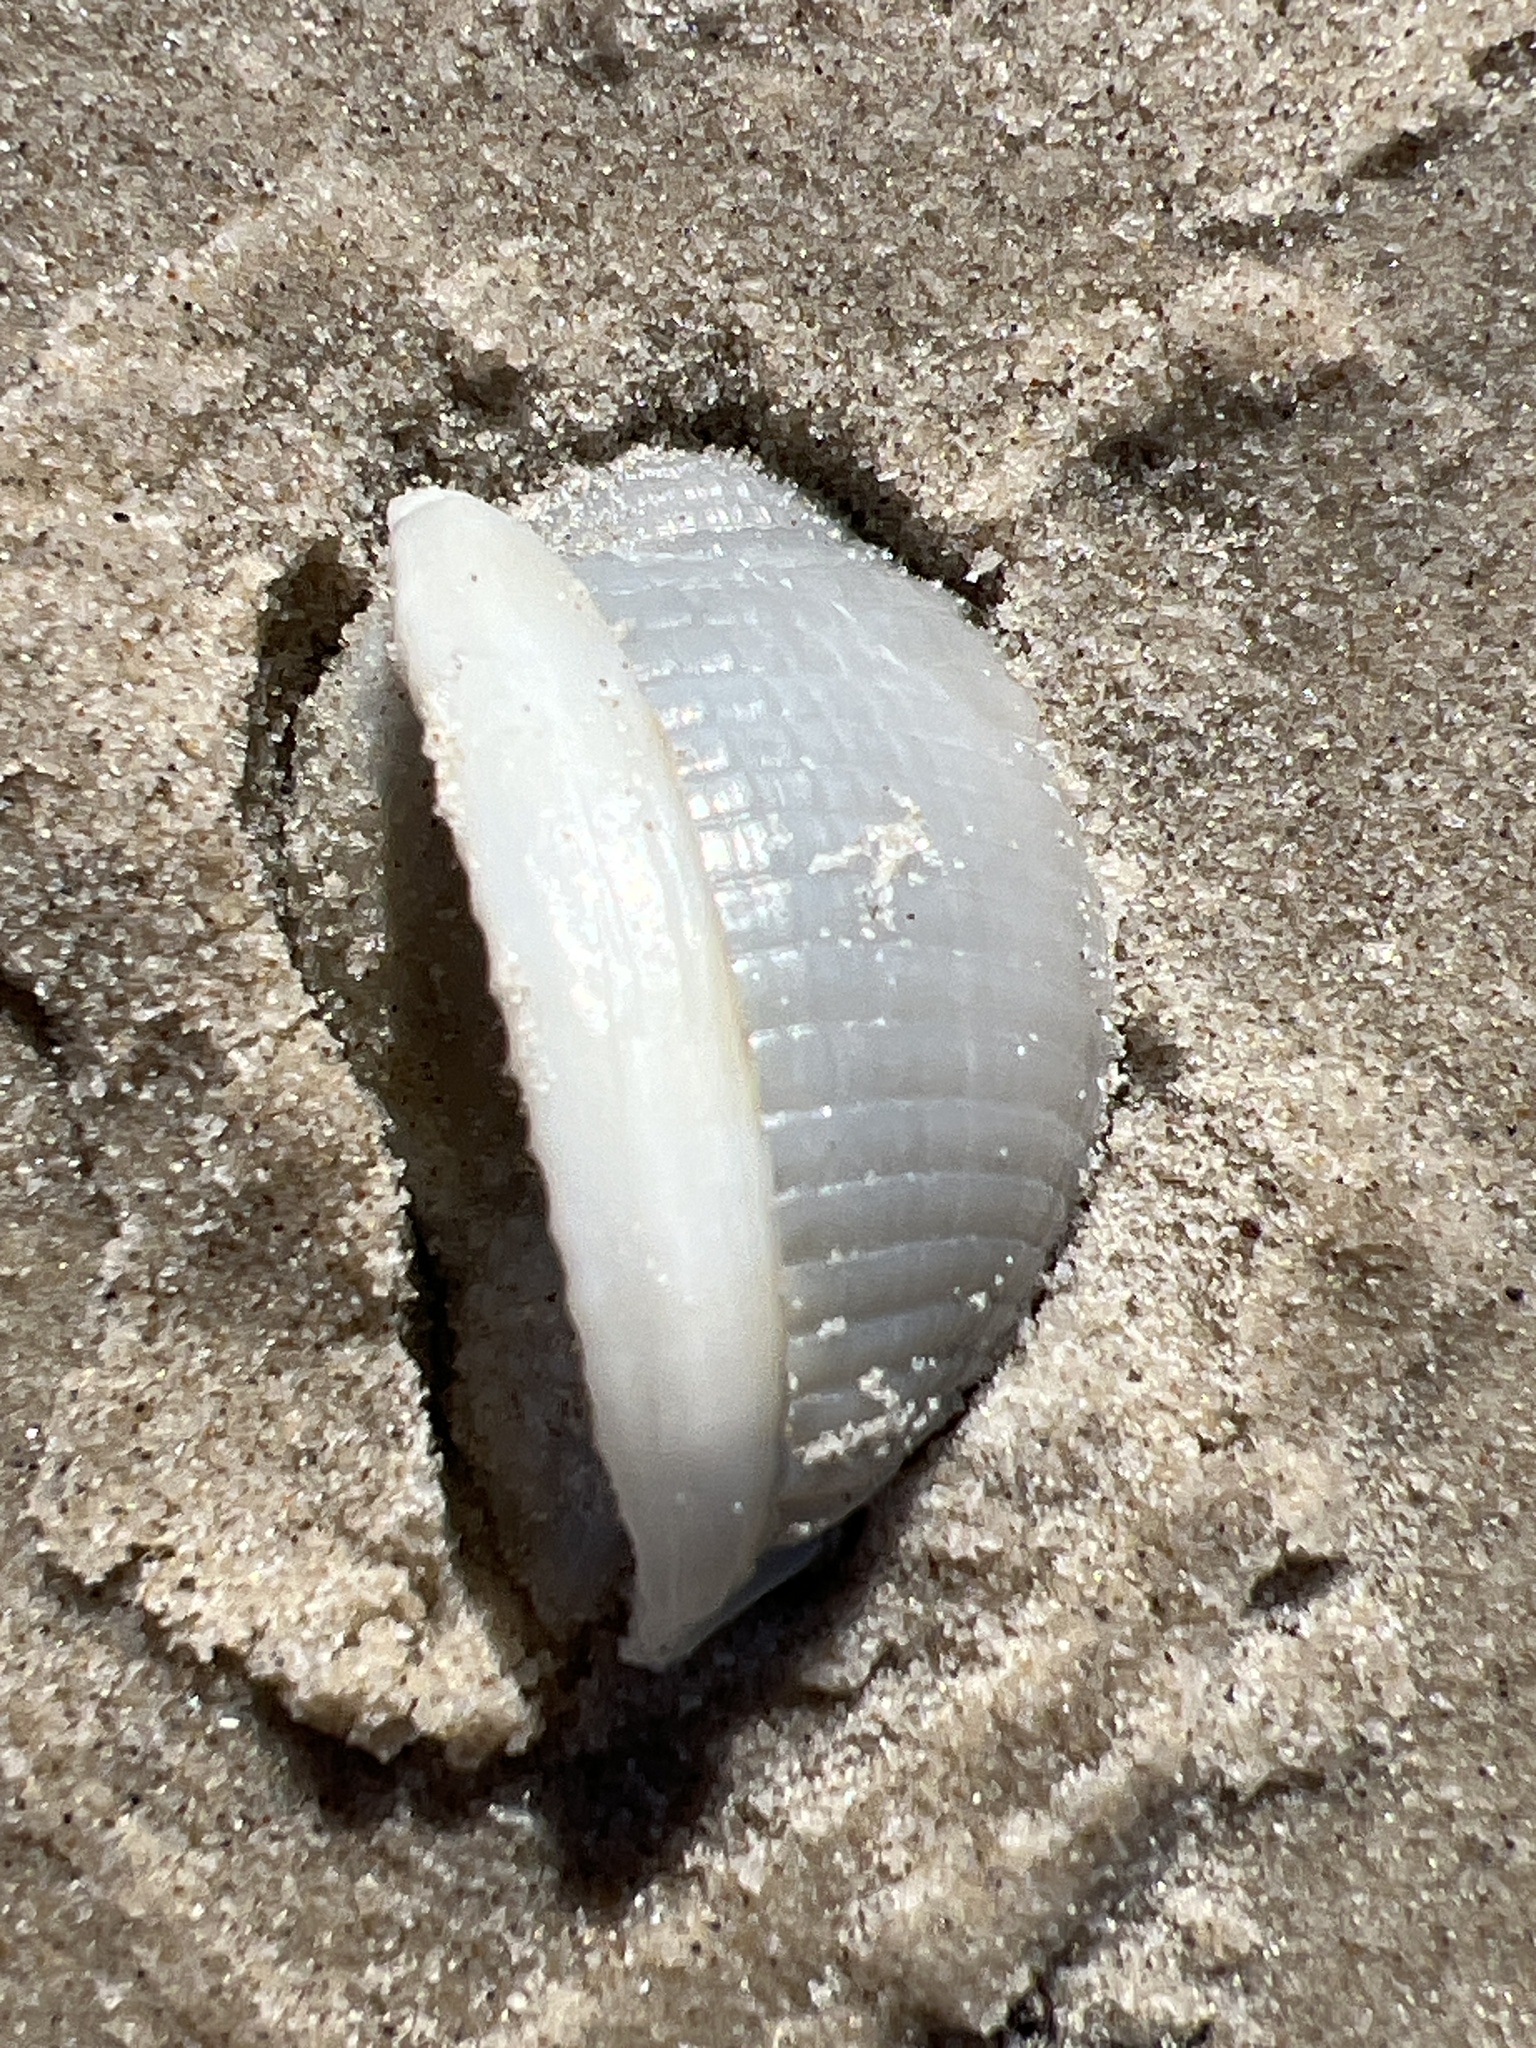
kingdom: Animalia
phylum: Mollusca
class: Gastropoda
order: Littorinimorpha
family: Cassidae
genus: Semicassis
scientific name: Semicassis granulata
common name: Scotch bonnet
